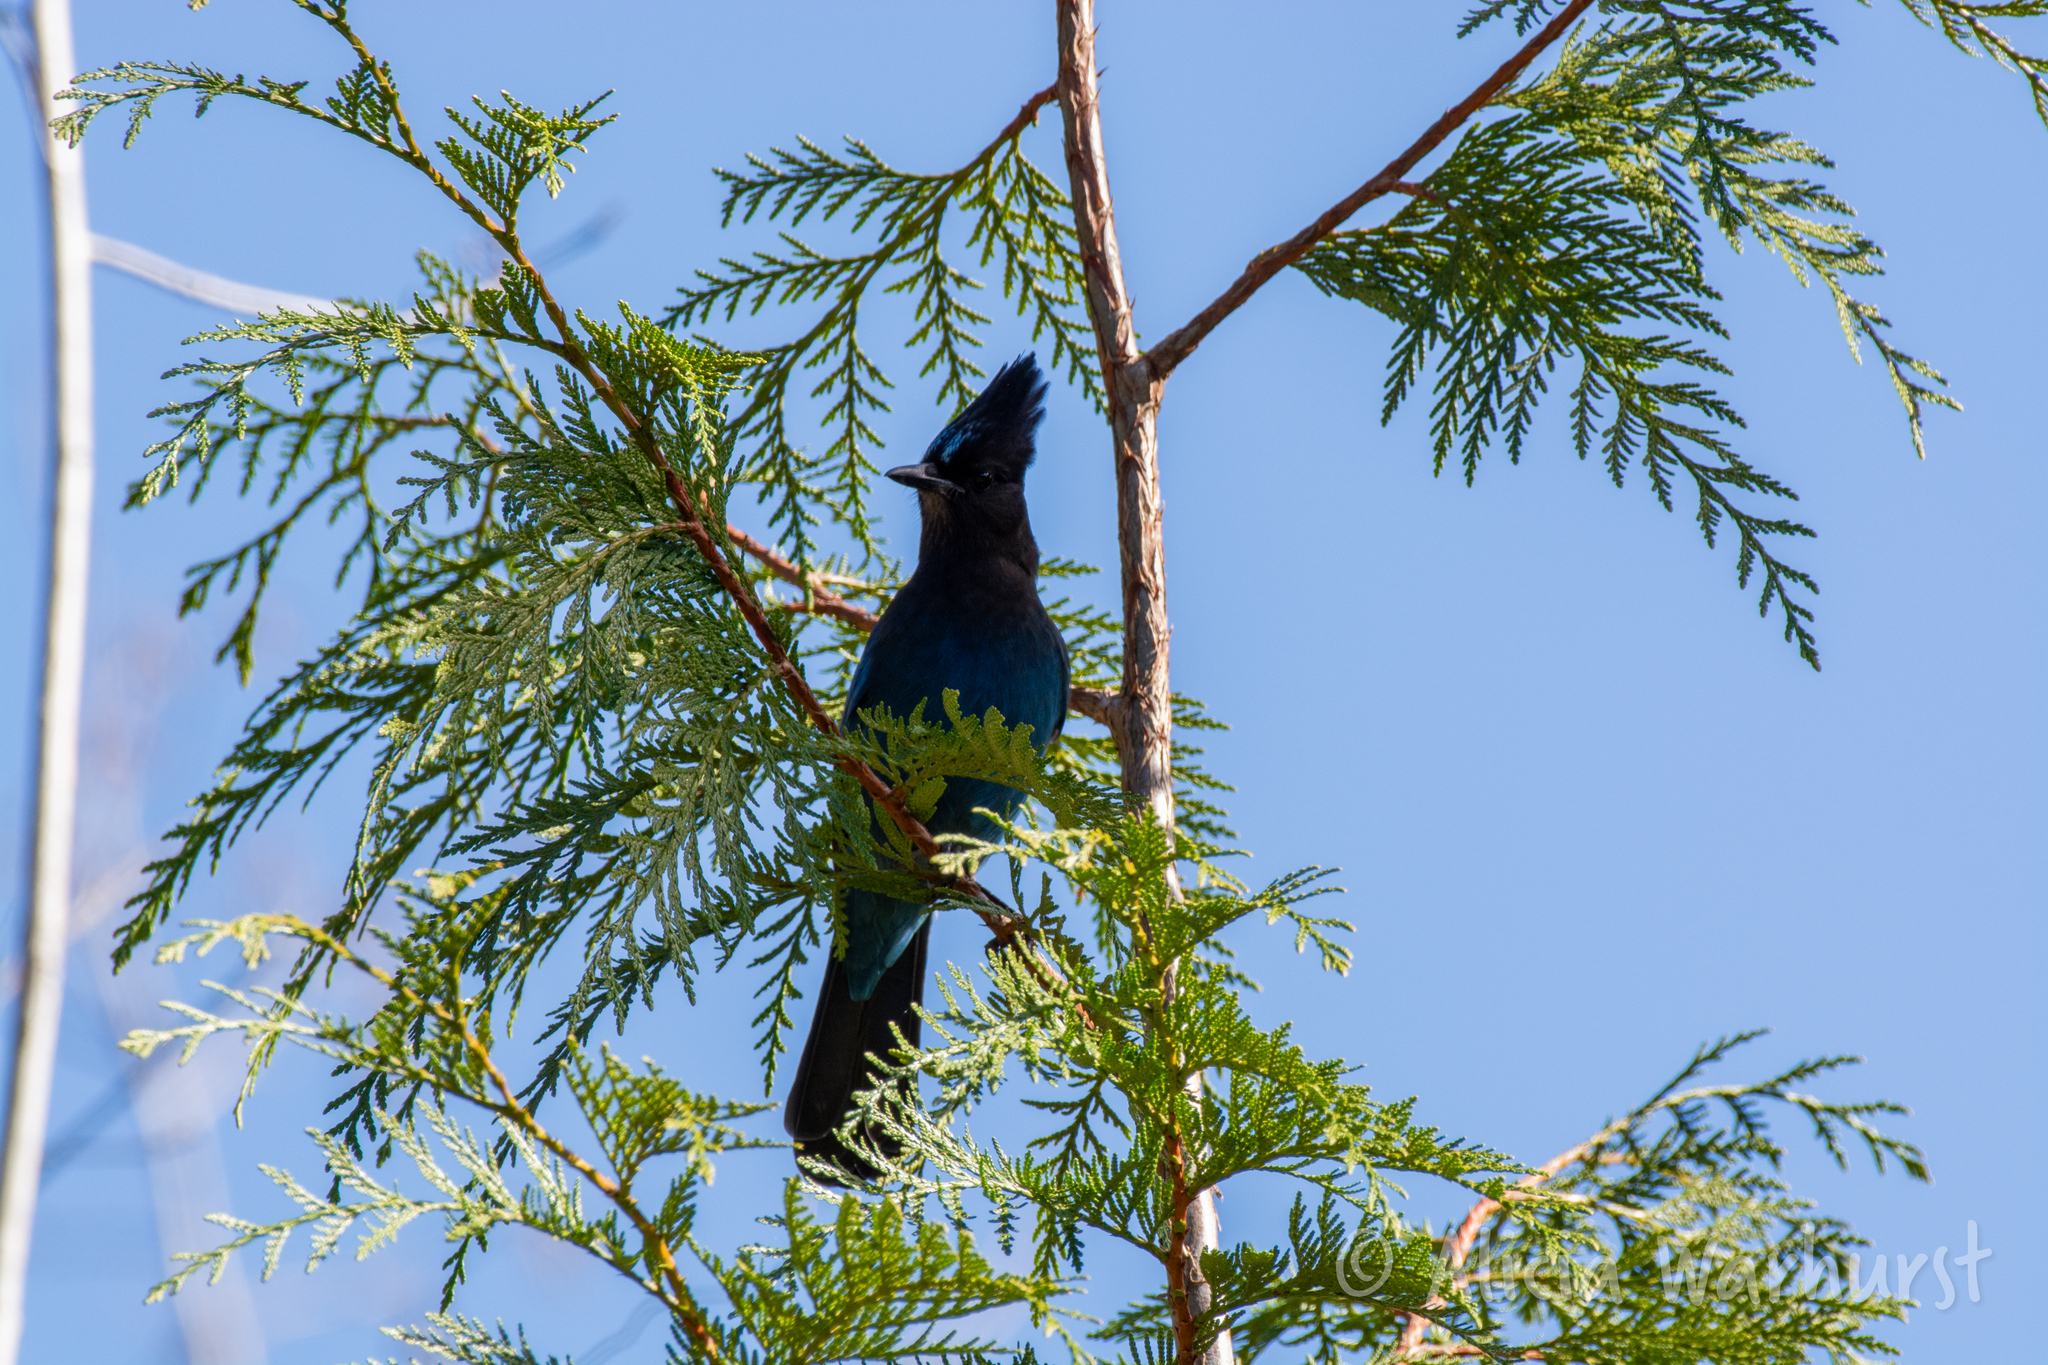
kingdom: Animalia
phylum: Chordata
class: Aves
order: Passeriformes
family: Corvidae
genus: Cyanocitta
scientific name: Cyanocitta stelleri
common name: Steller's jay
